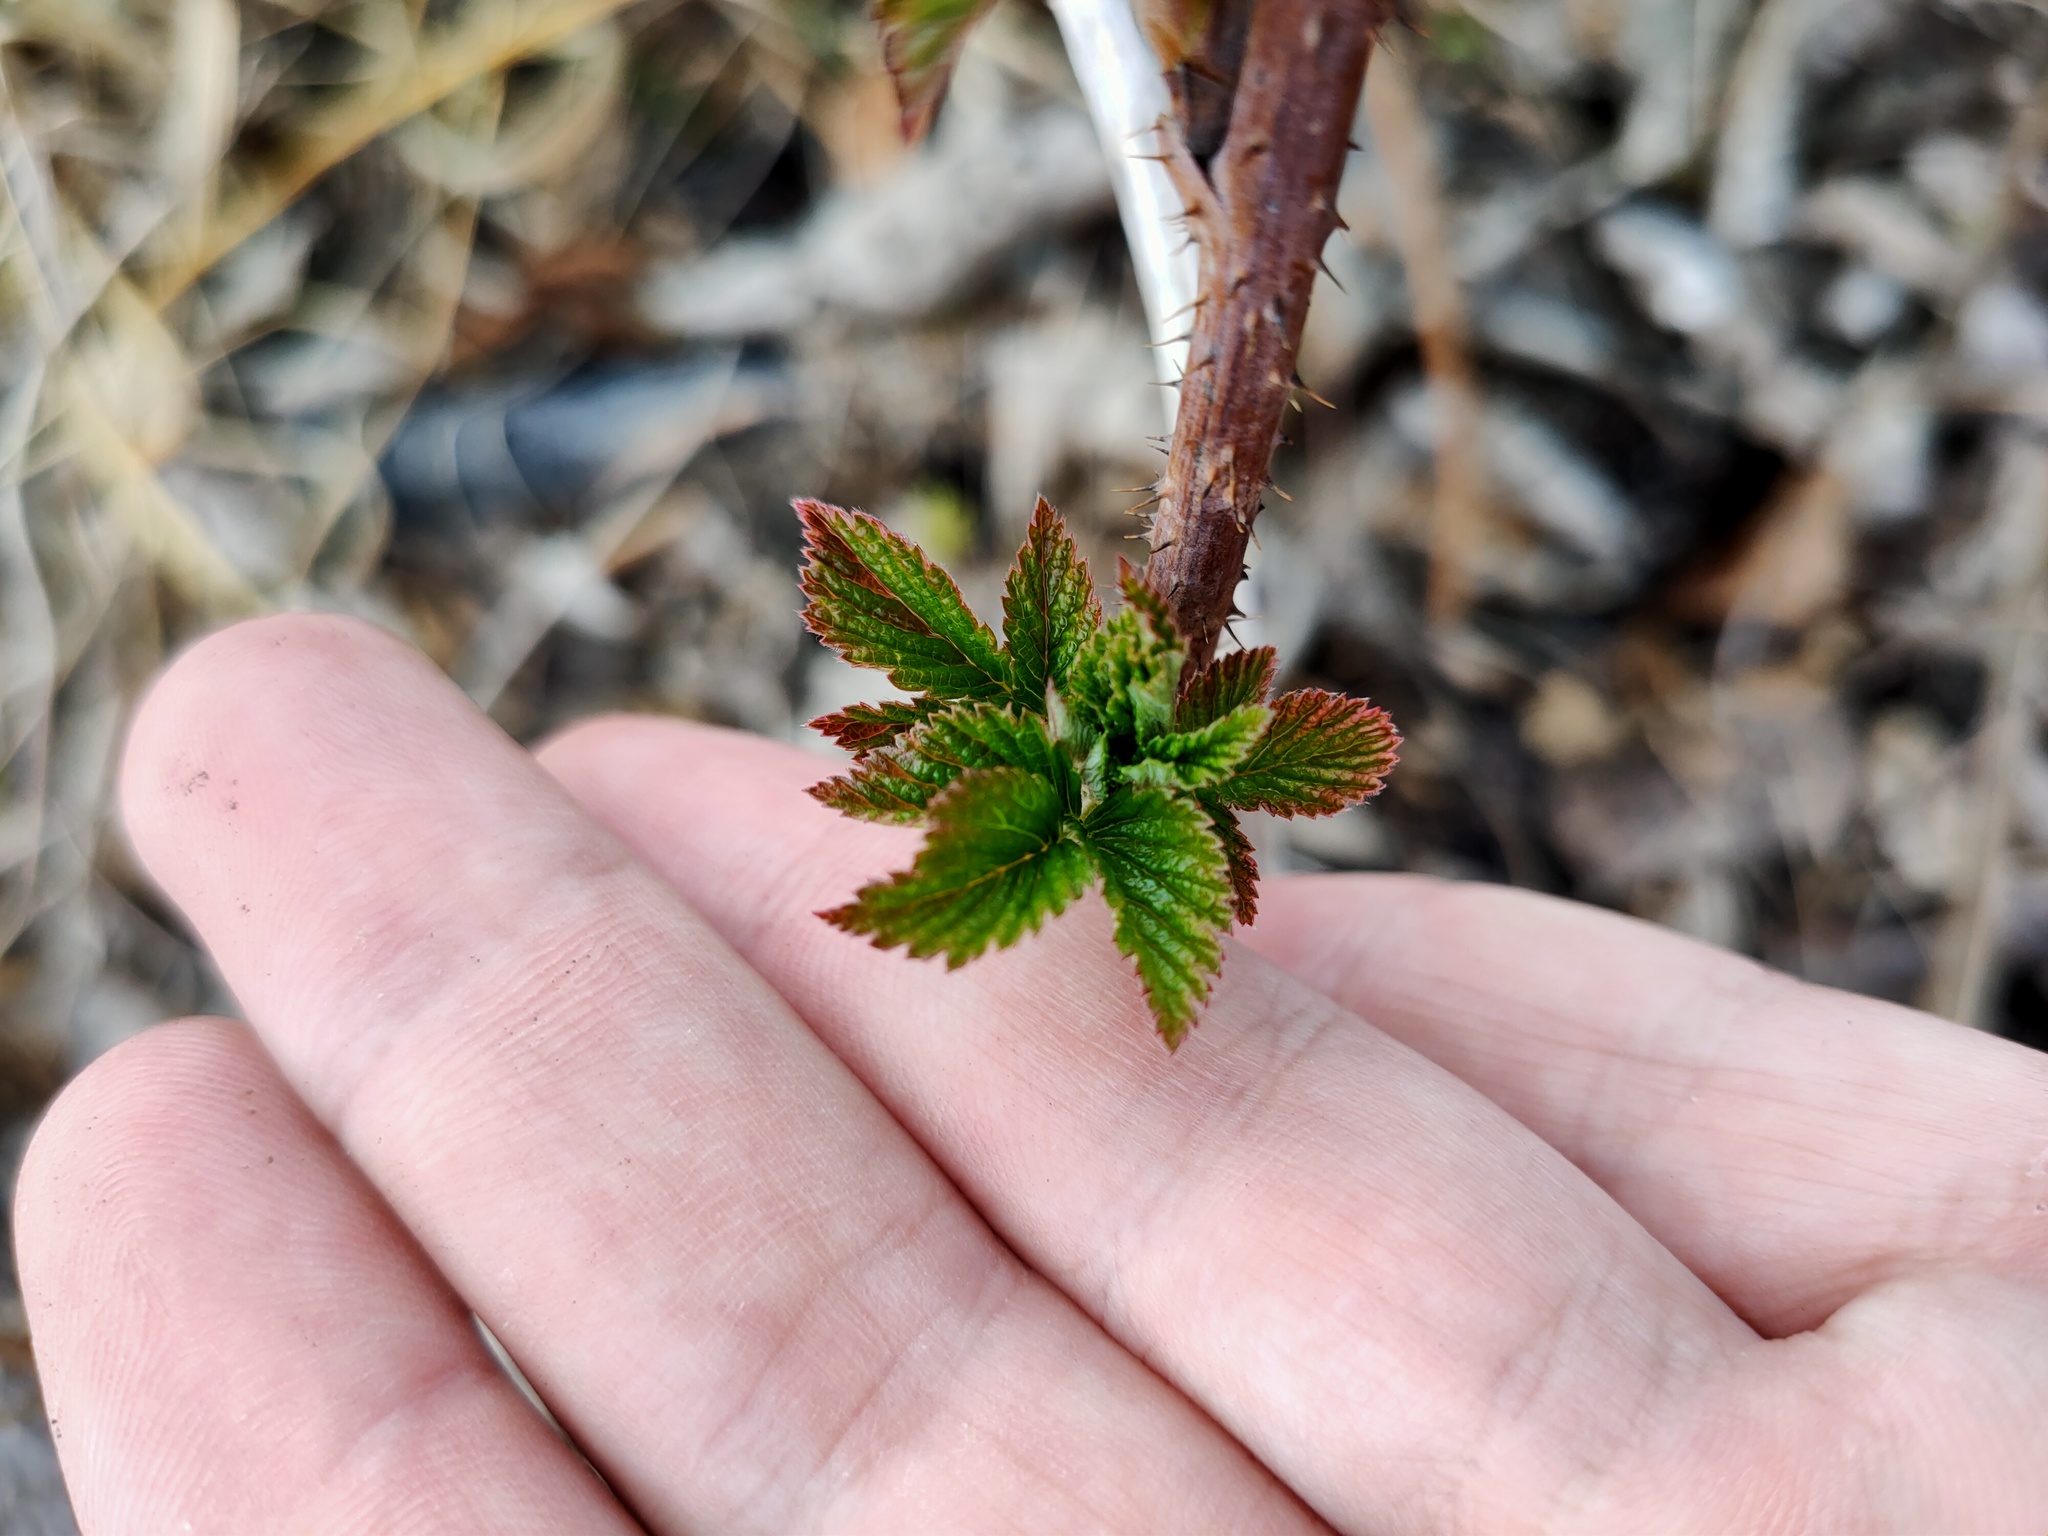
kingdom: Plantae
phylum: Tracheophyta
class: Magnoliopsida
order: Rosales
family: Rosaceae
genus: Rubus
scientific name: Rubus idaeus
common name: Raspberry
